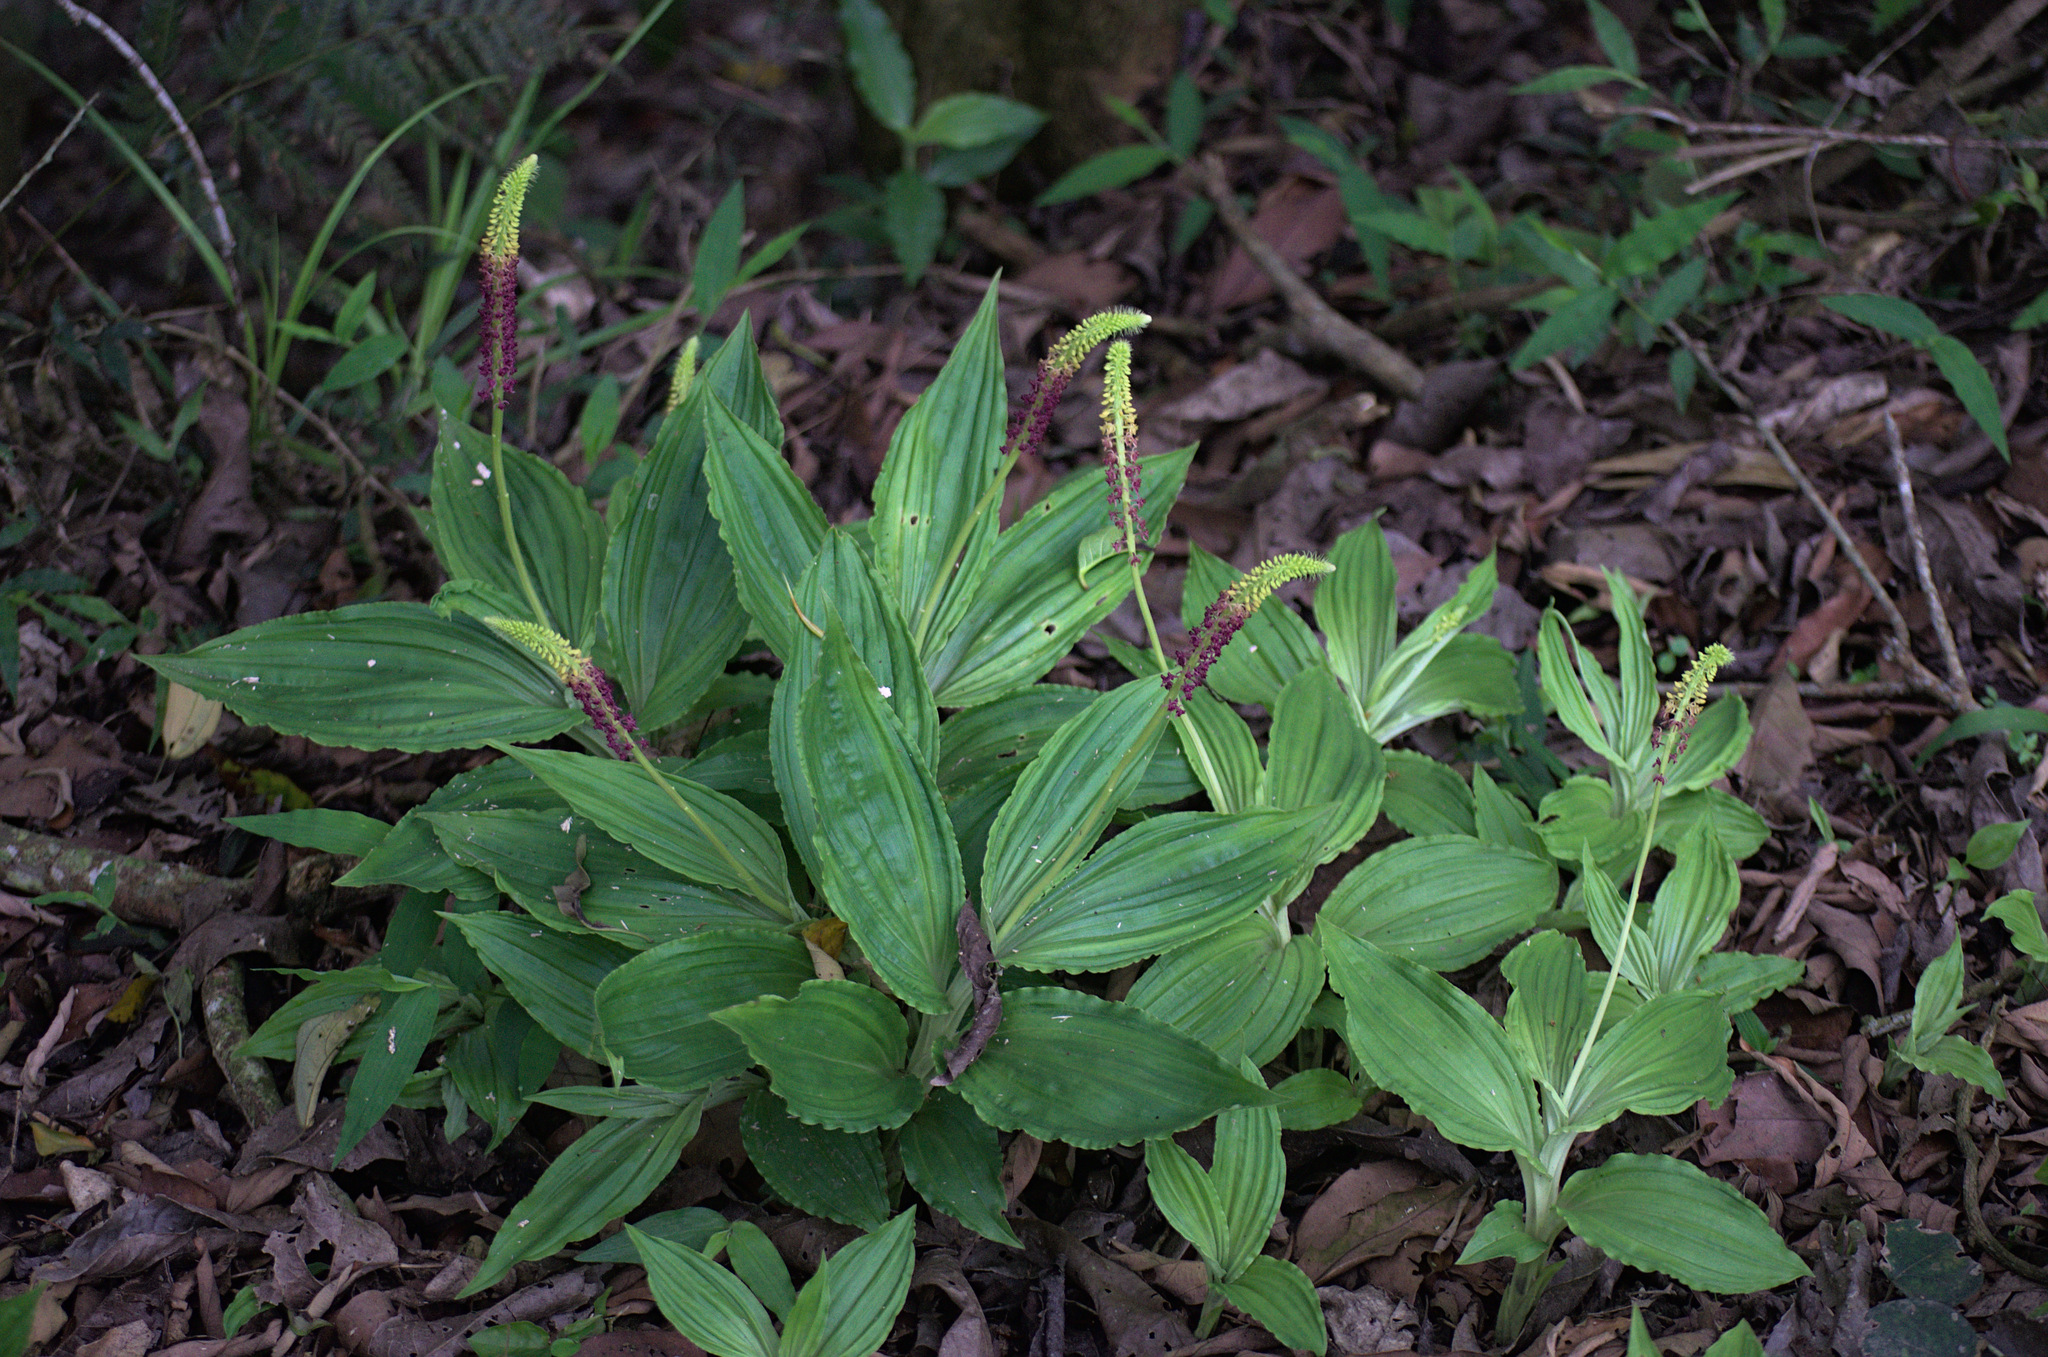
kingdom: Plantae
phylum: Tracheophyta
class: Liliopsida
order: Asparagales
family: Orchidaceae
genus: Dienia
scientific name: Dienia ophrydis
